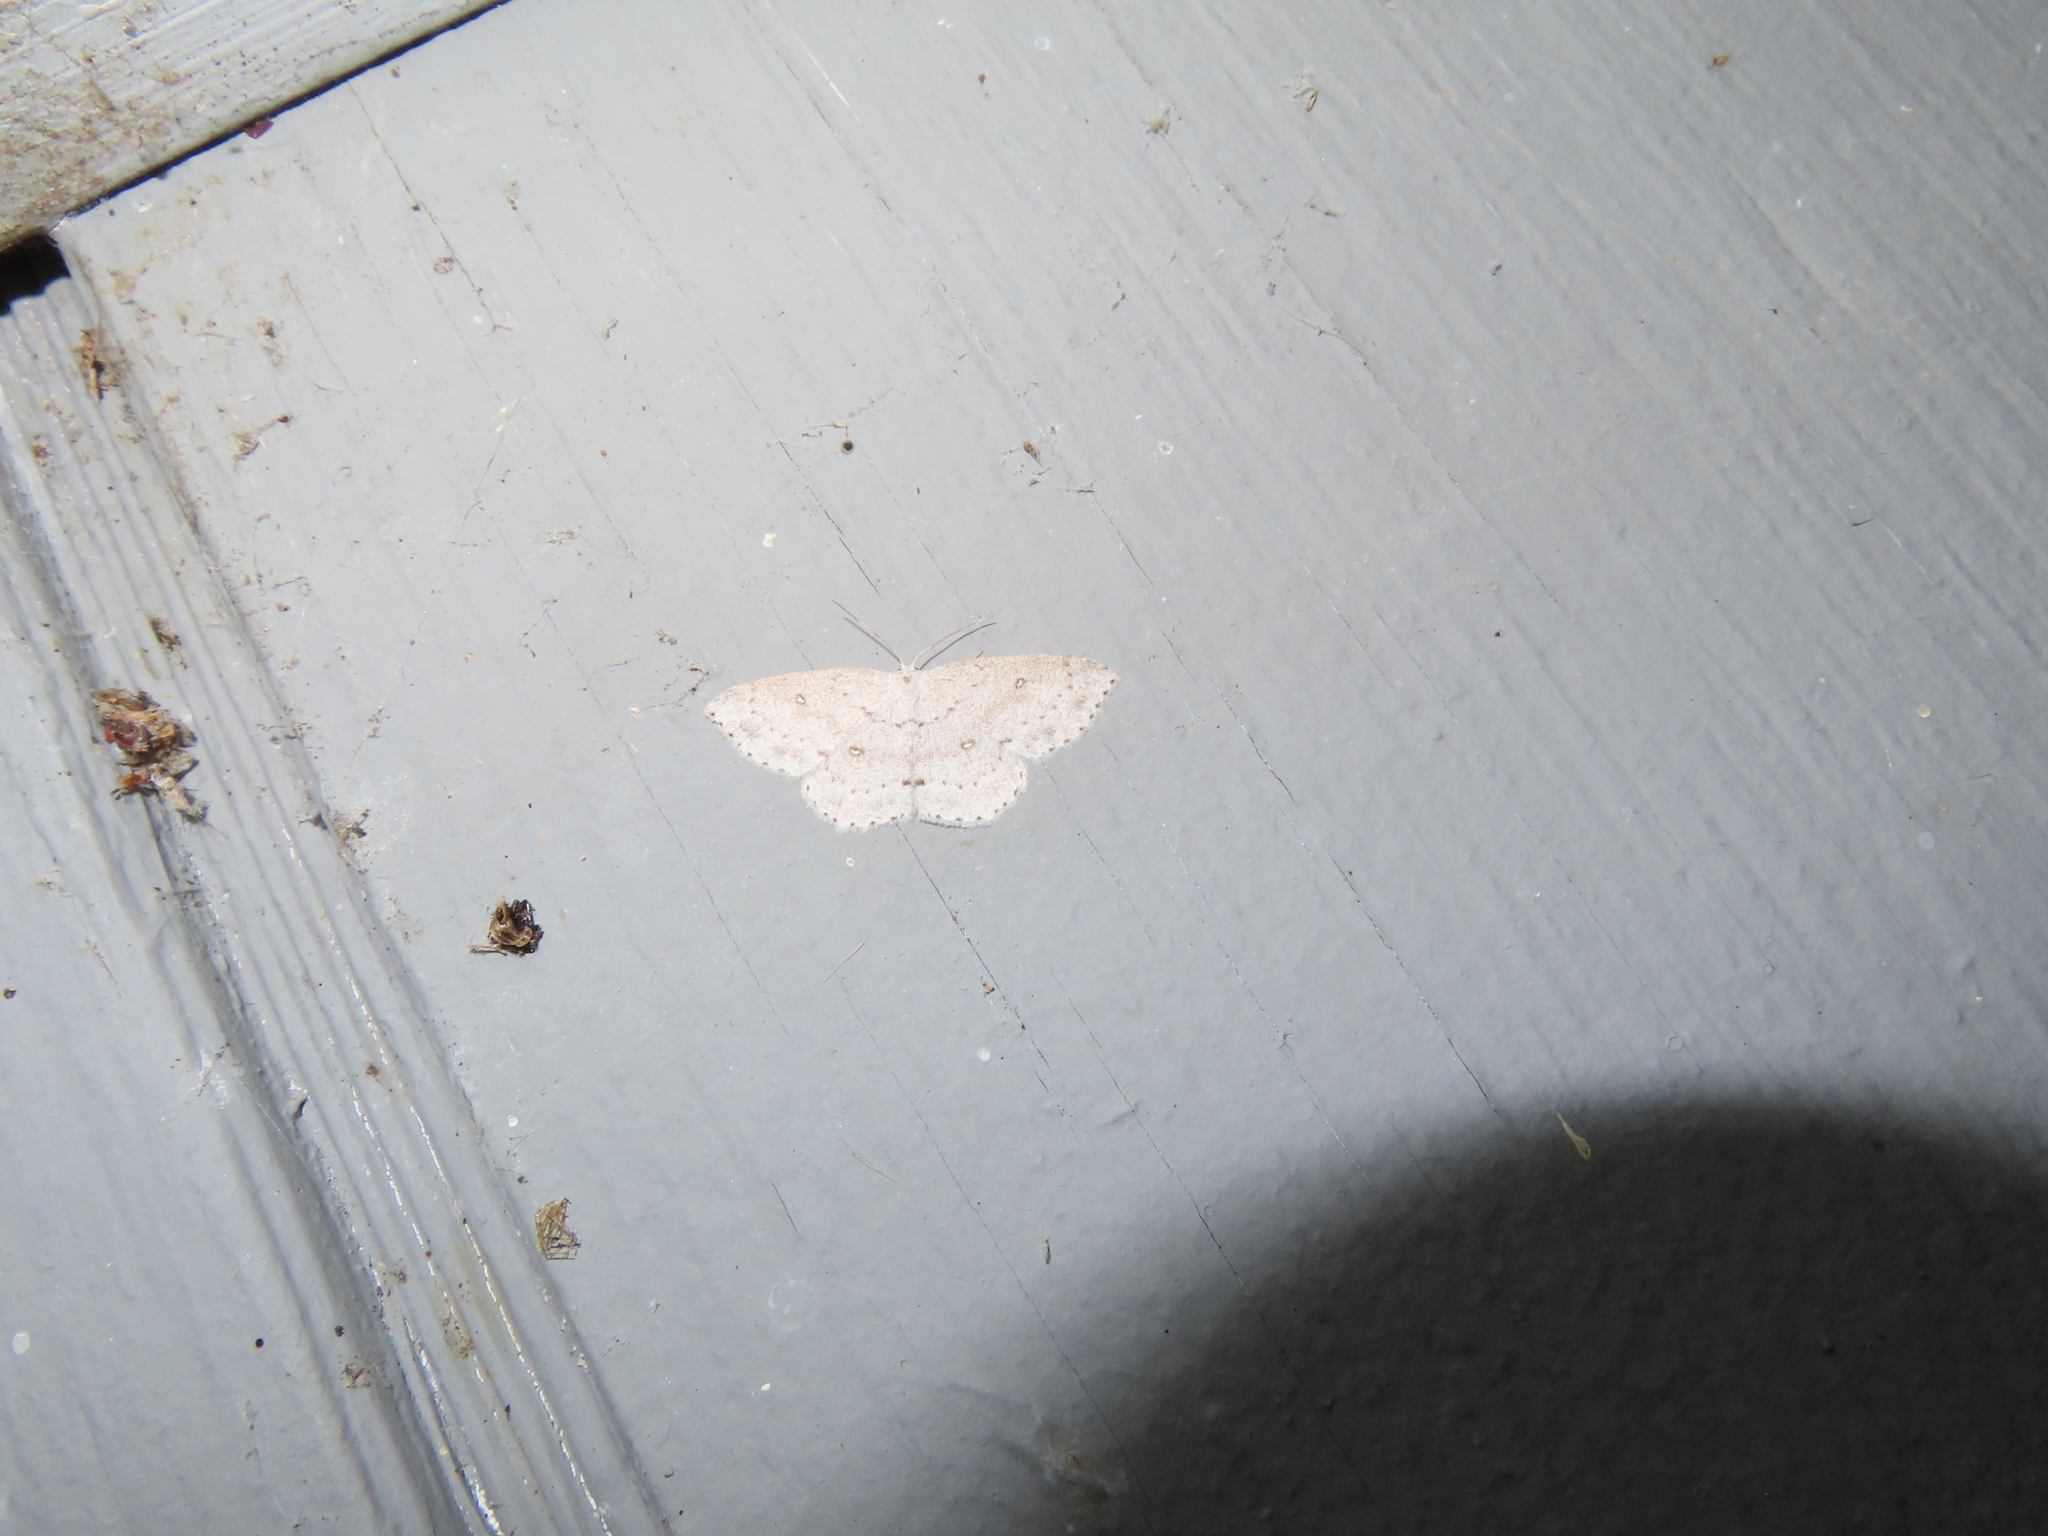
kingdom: Animalia
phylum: Arthropoda
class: Insecta
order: Lepidoptera
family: Geometridae
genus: Cyclophora
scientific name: Cyclophora pendulinaria
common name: Sweet fern geometer
